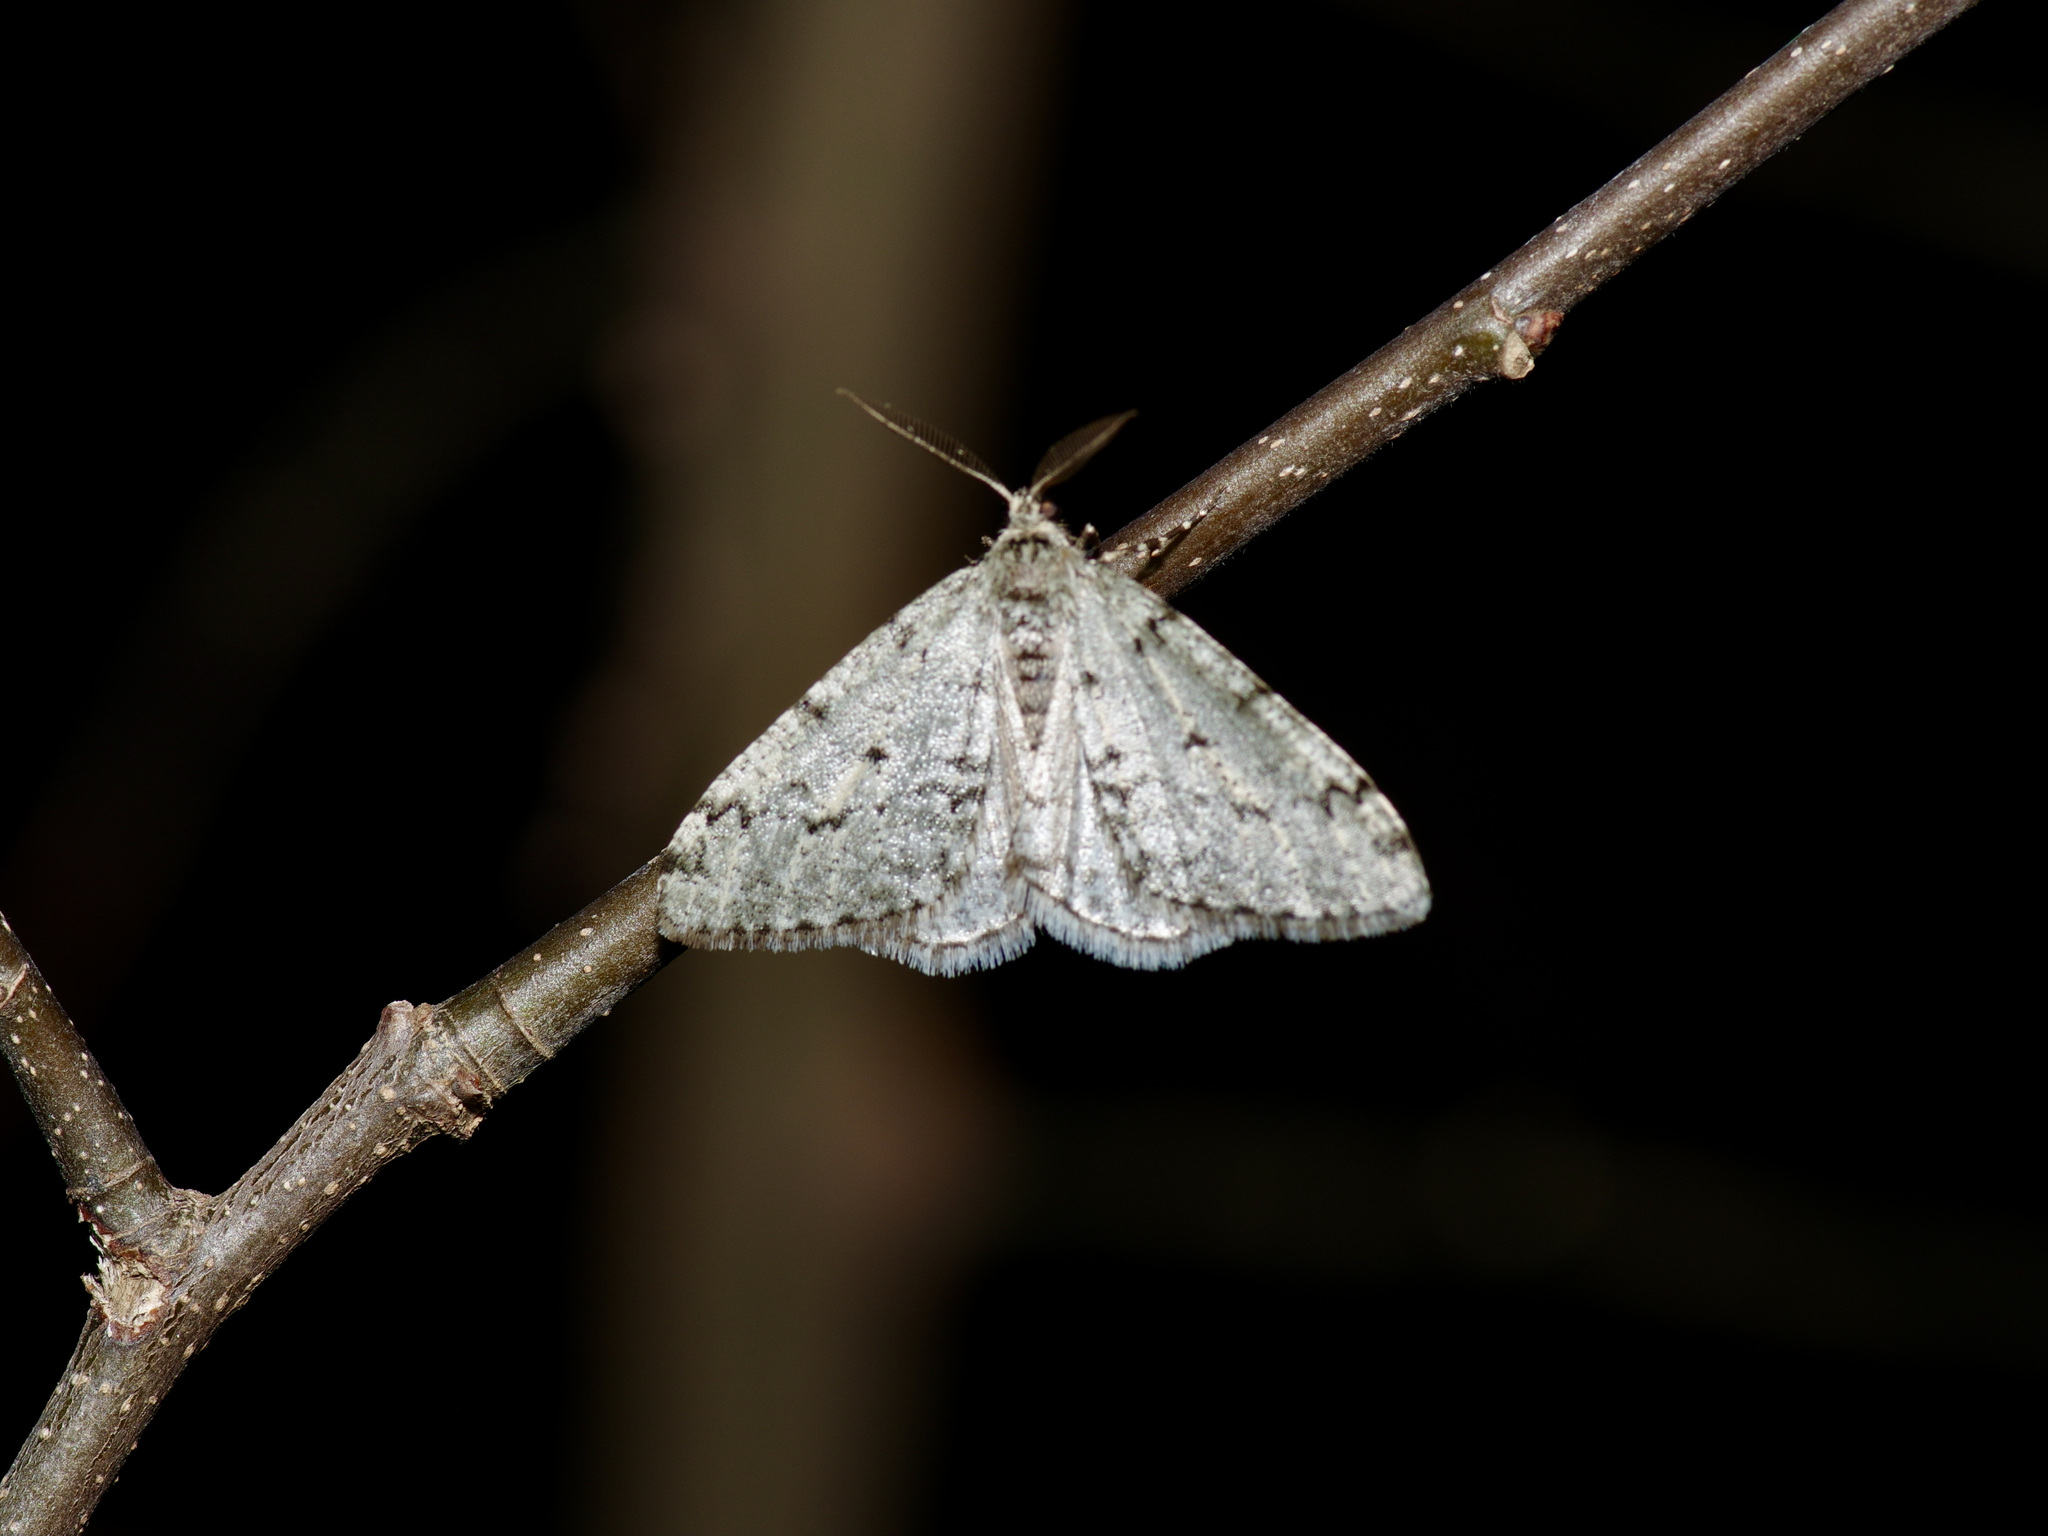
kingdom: Animalia
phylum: Arthropoda
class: Insecta
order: Lepidoptera
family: Geometridae
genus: Phigalia
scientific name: Phigalia strigataria
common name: Small phigalia
